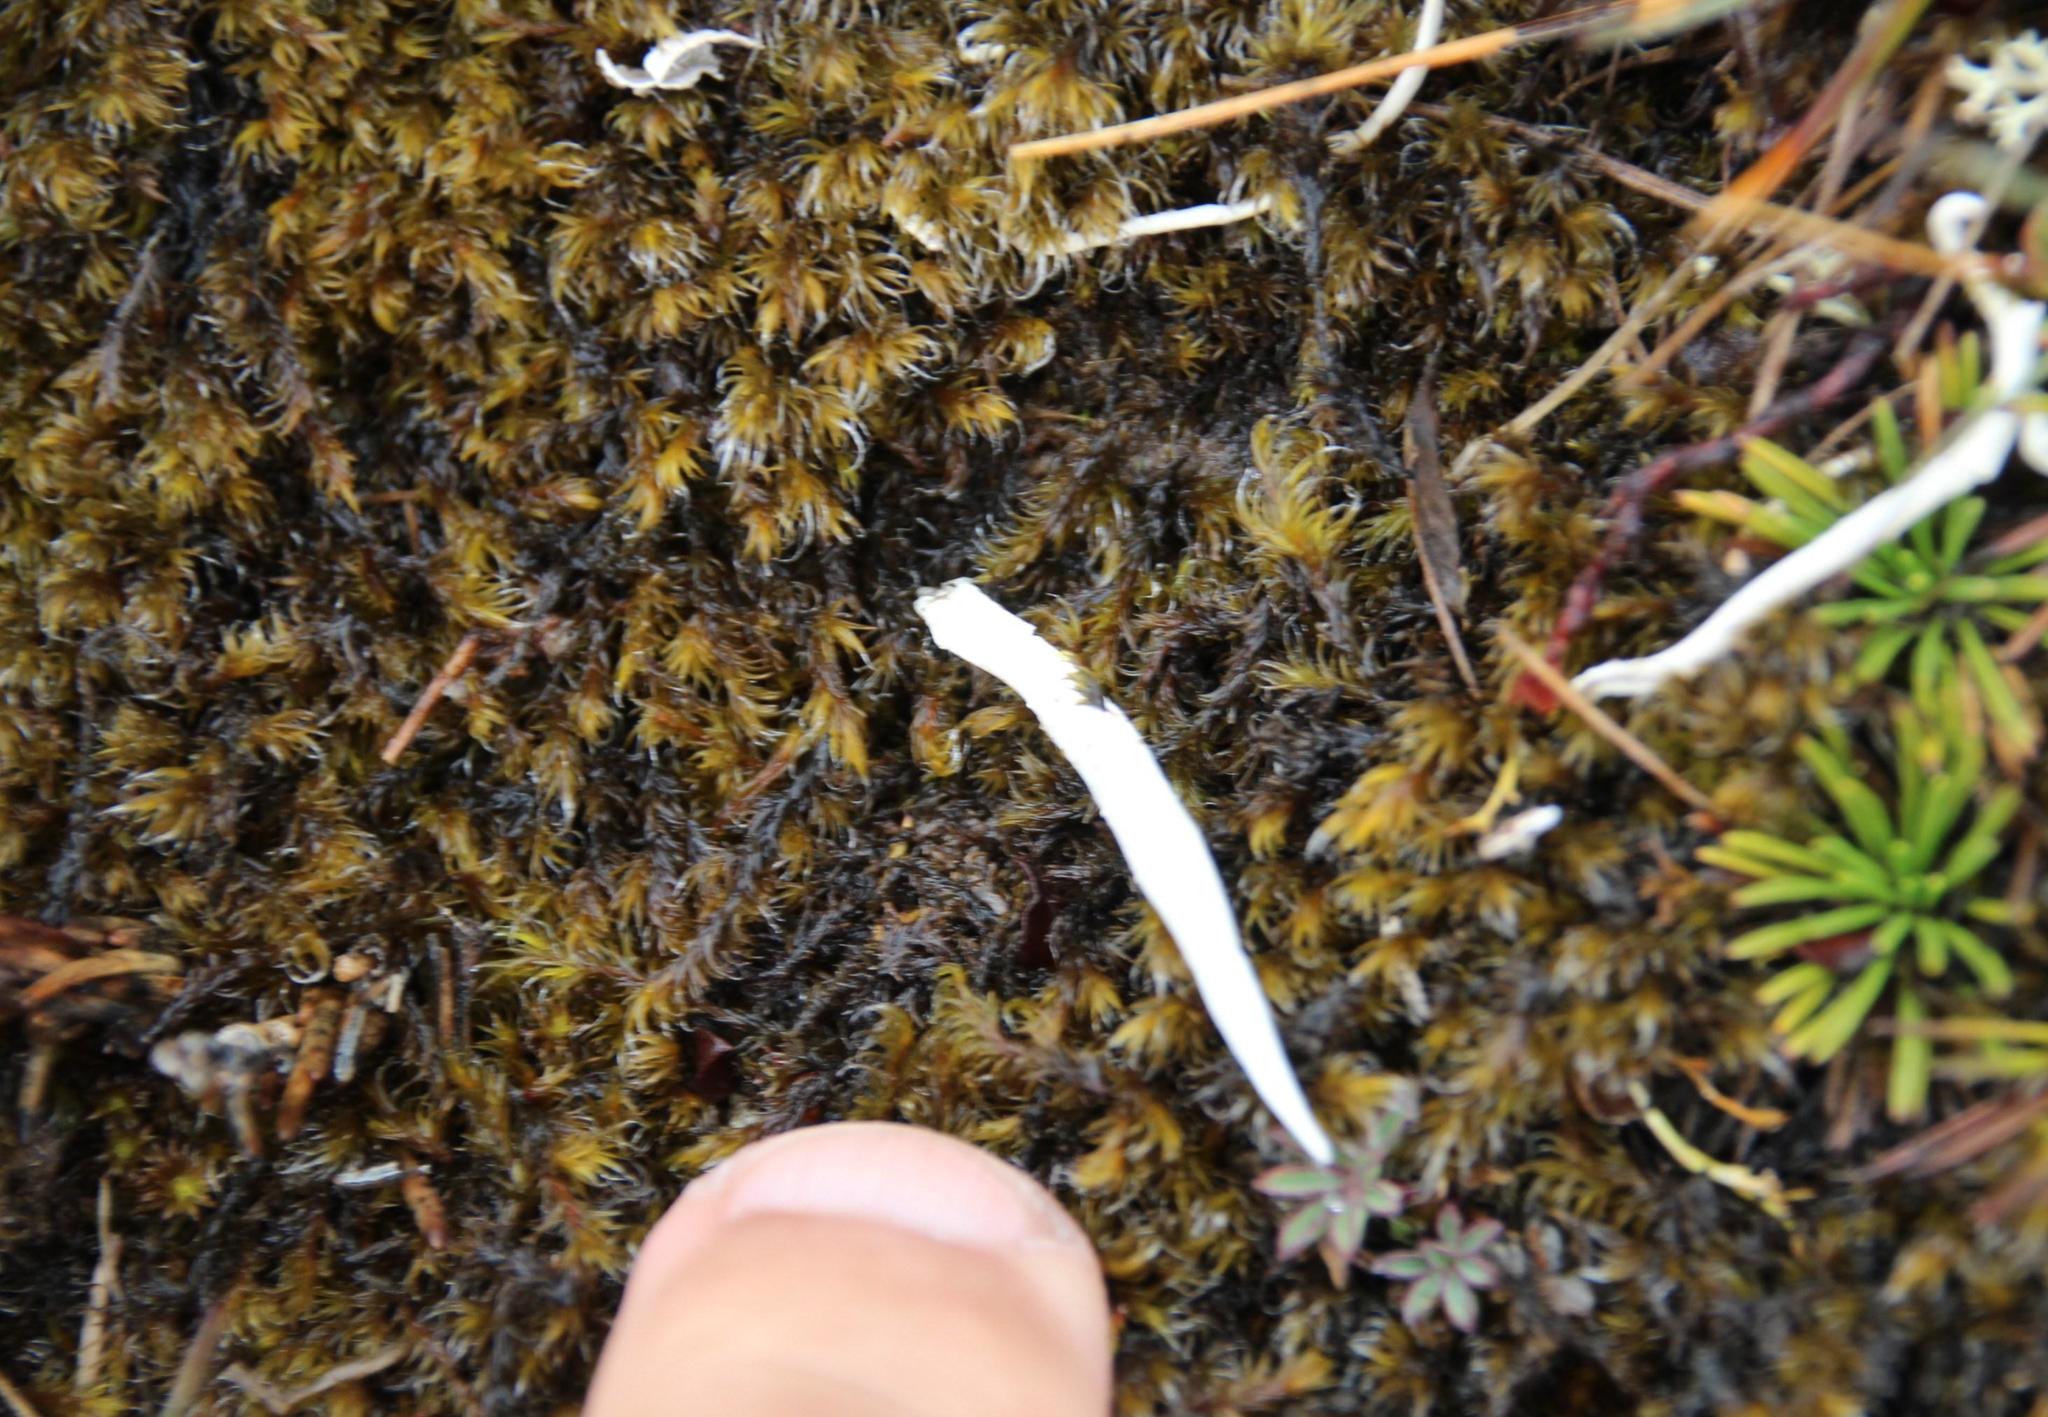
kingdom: Fungi
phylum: Ascomycota
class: Lecanoromycetes
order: Pertusariales
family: Icmadophilaceae
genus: Thamnolia
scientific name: Thamnolia vermicularis
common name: Whiteworm lichen
